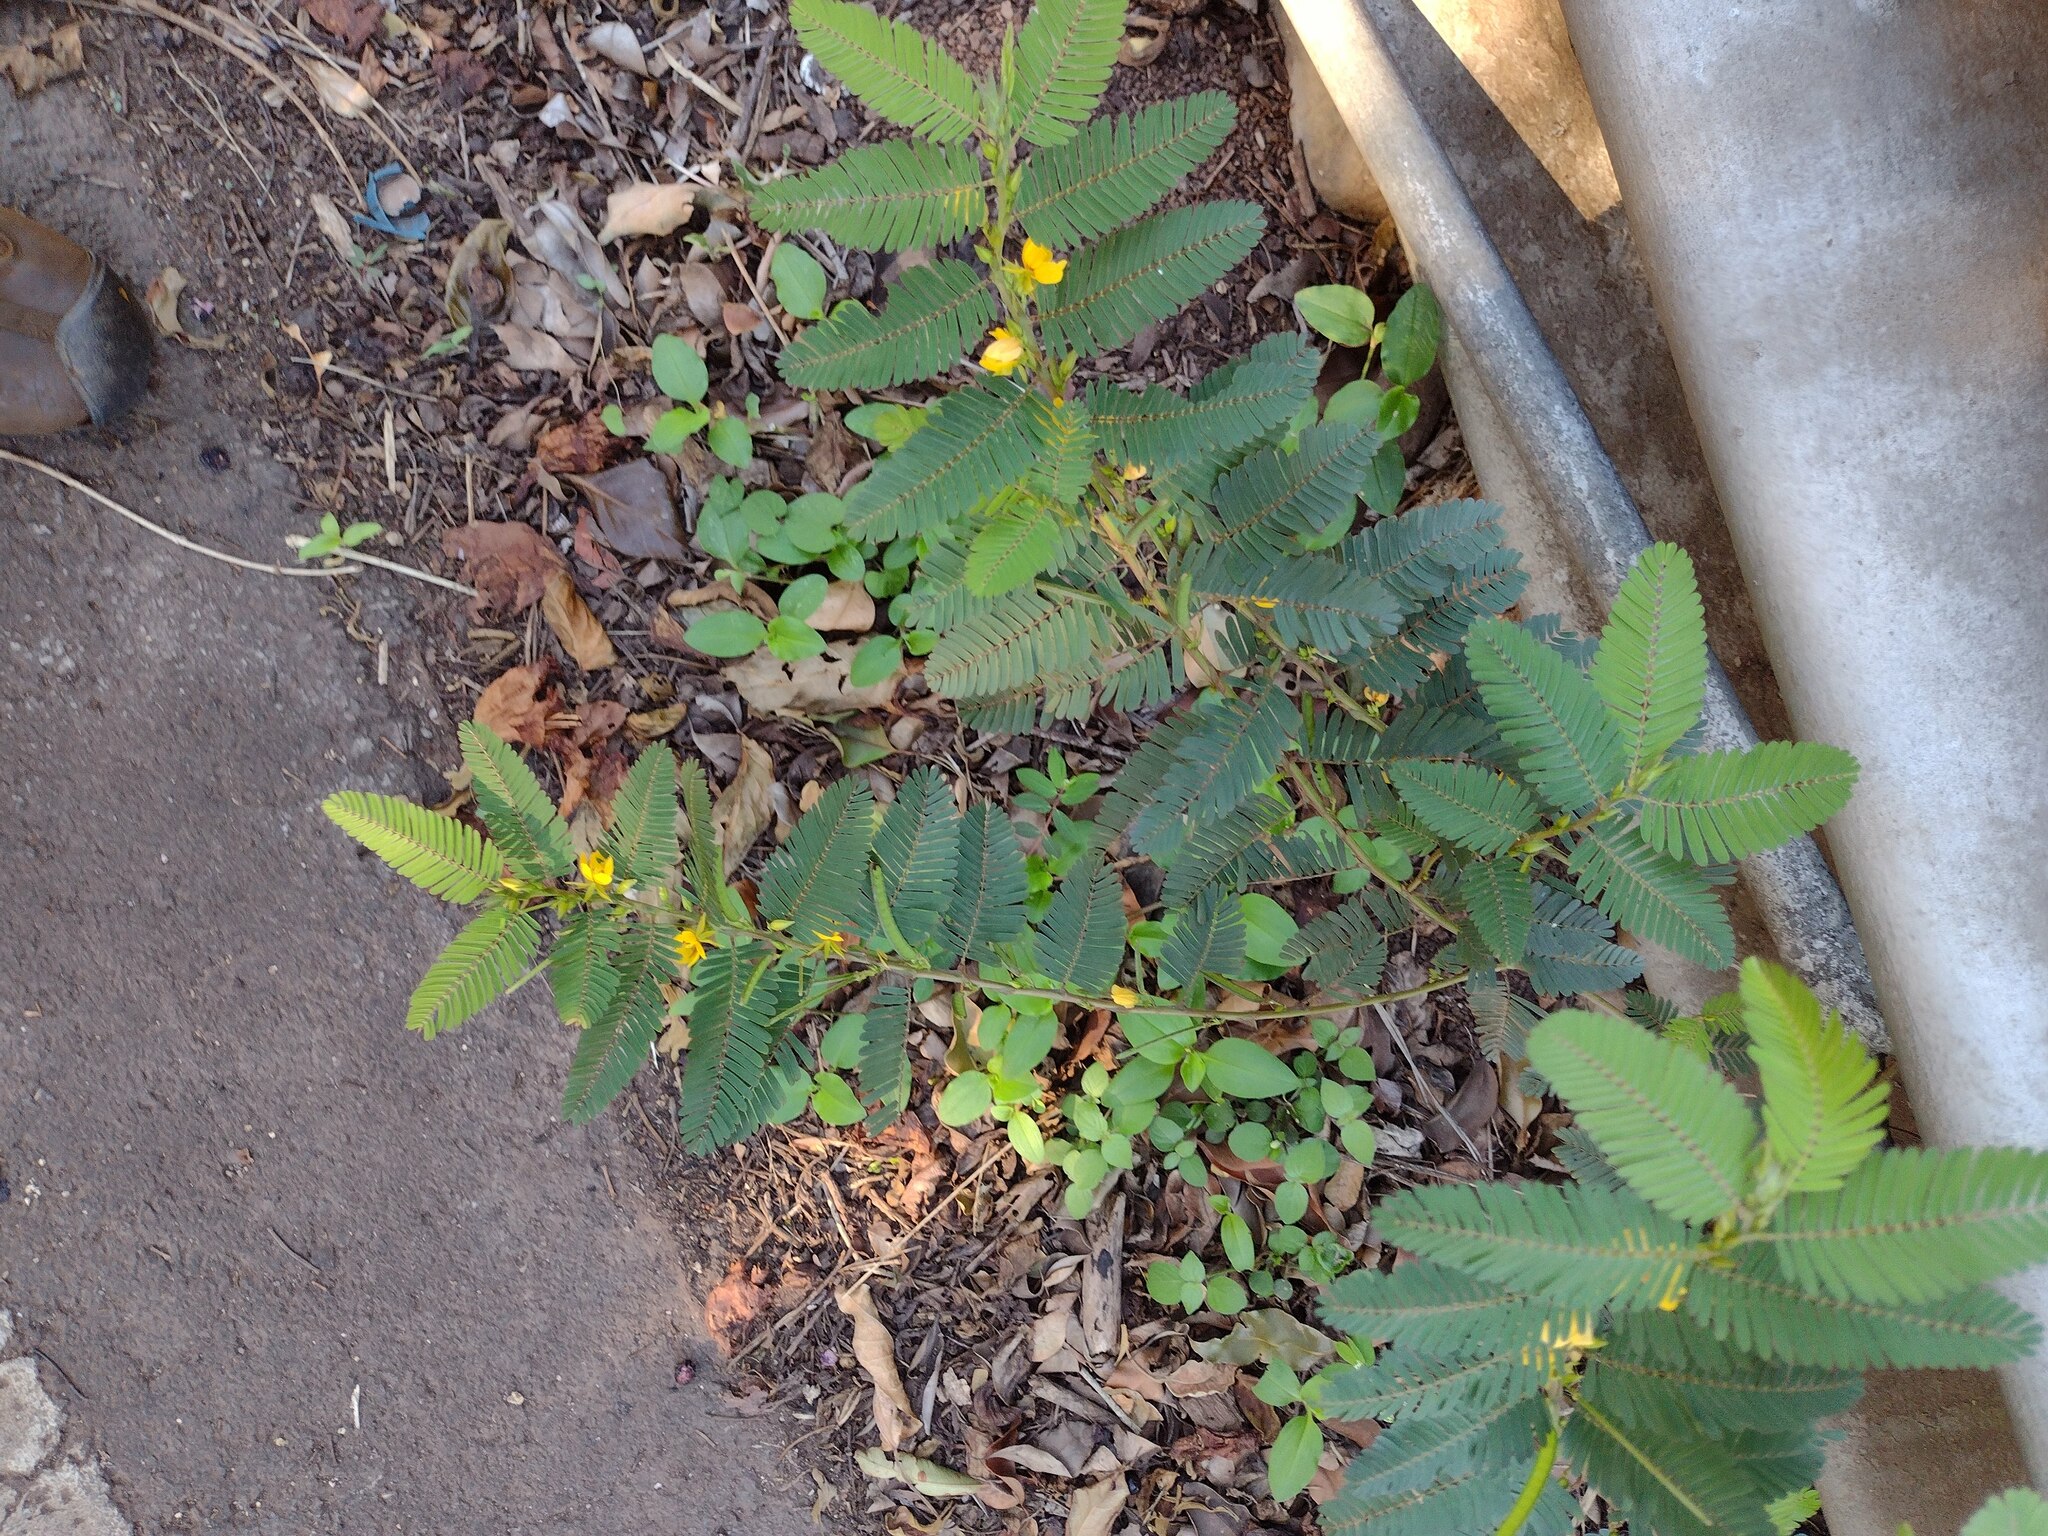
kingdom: Plantae
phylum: Tracheophyta
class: Magnoliopsida
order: Fabales
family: Fabaceae
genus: Chamaecrista
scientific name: Chamaecrista nictitans
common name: Sensitive cassia
